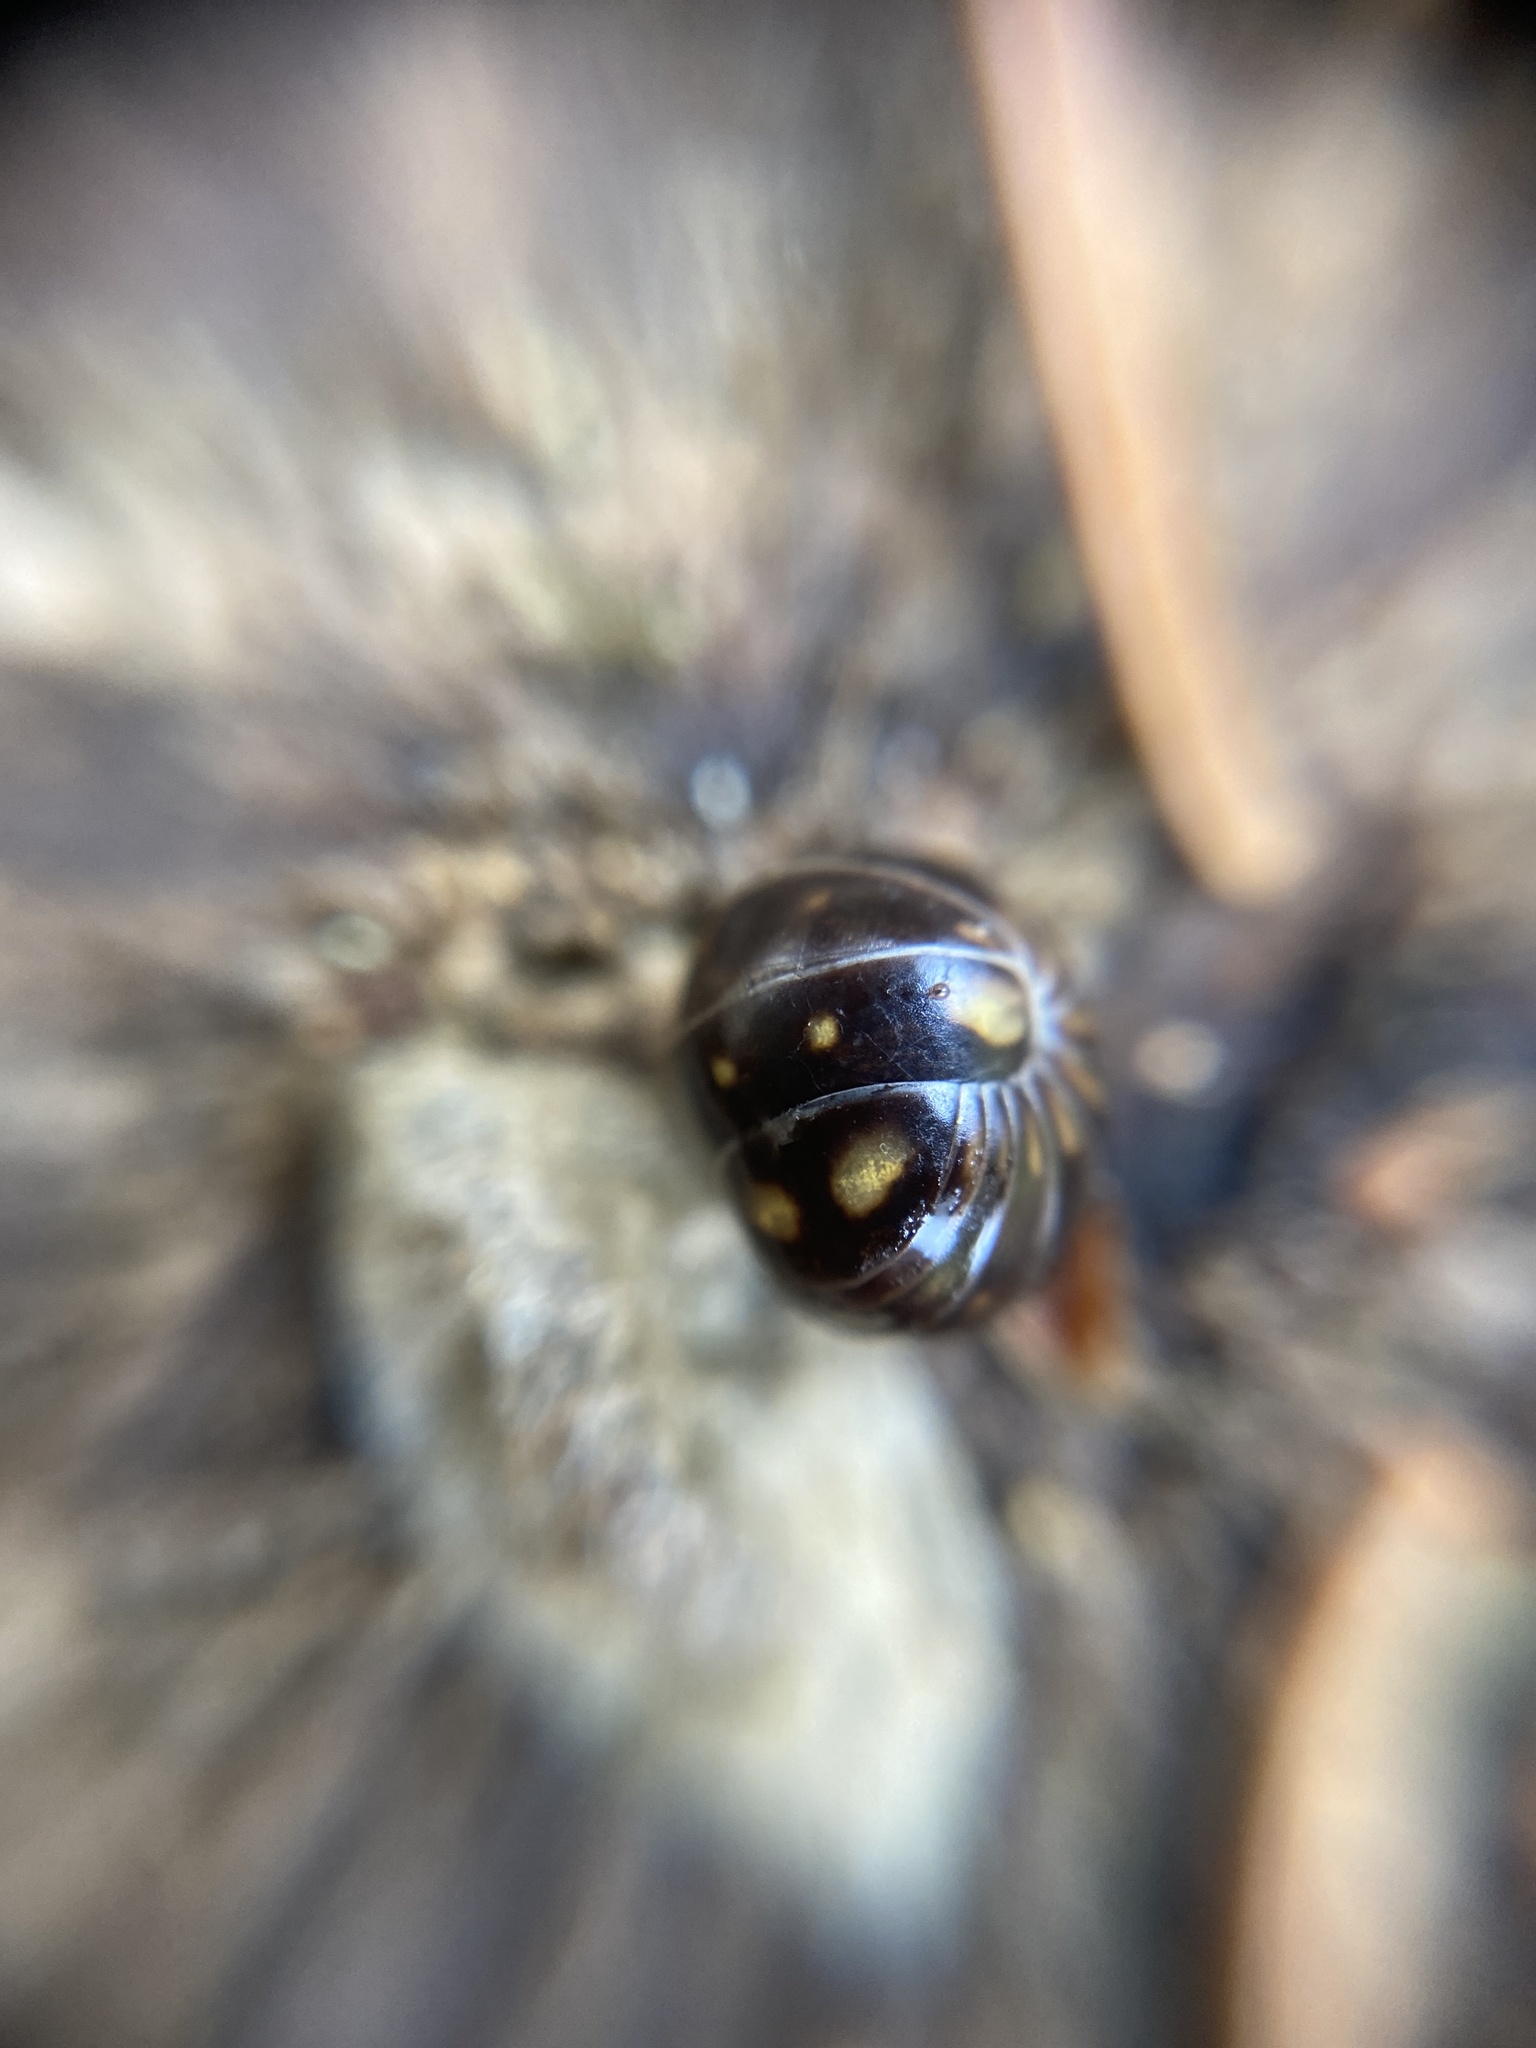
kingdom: Animalia
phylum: Arthropoda
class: Diplopoda
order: Glomerida
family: Glomeridae
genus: Glomeris
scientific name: Glomeris tetrasticha
